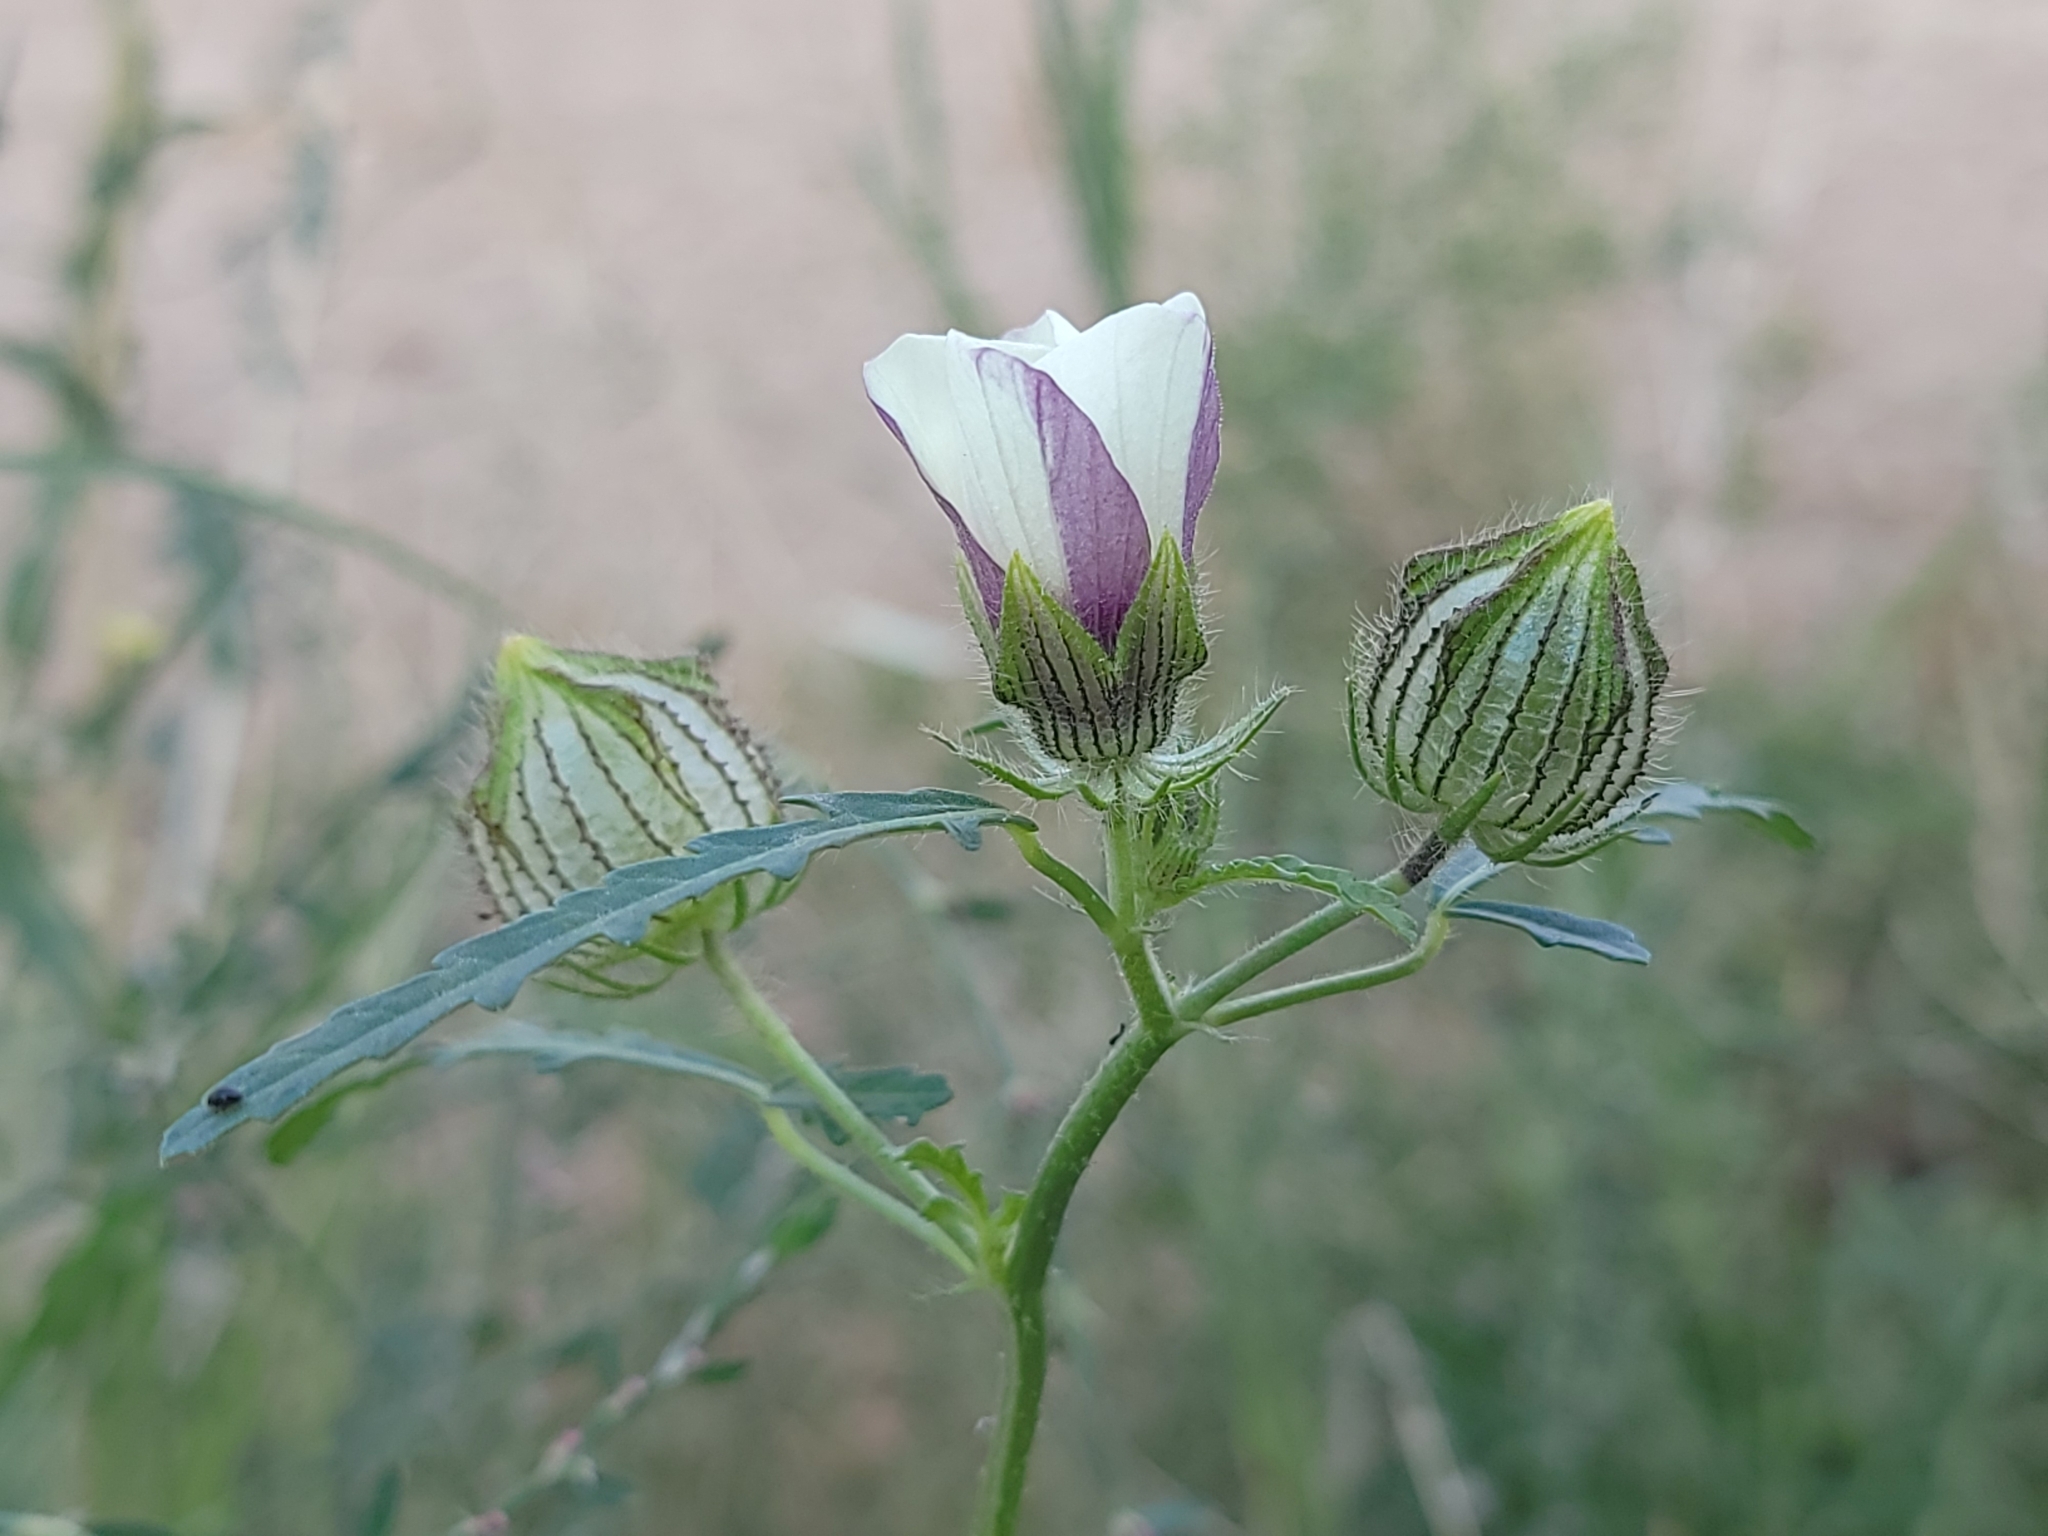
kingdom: Plantae
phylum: Tracheophyta
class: Magnoliopsida
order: Malvales
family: Malvaceae
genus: Hibiscus
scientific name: Hibiscus trionum
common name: Bladder ketmia
